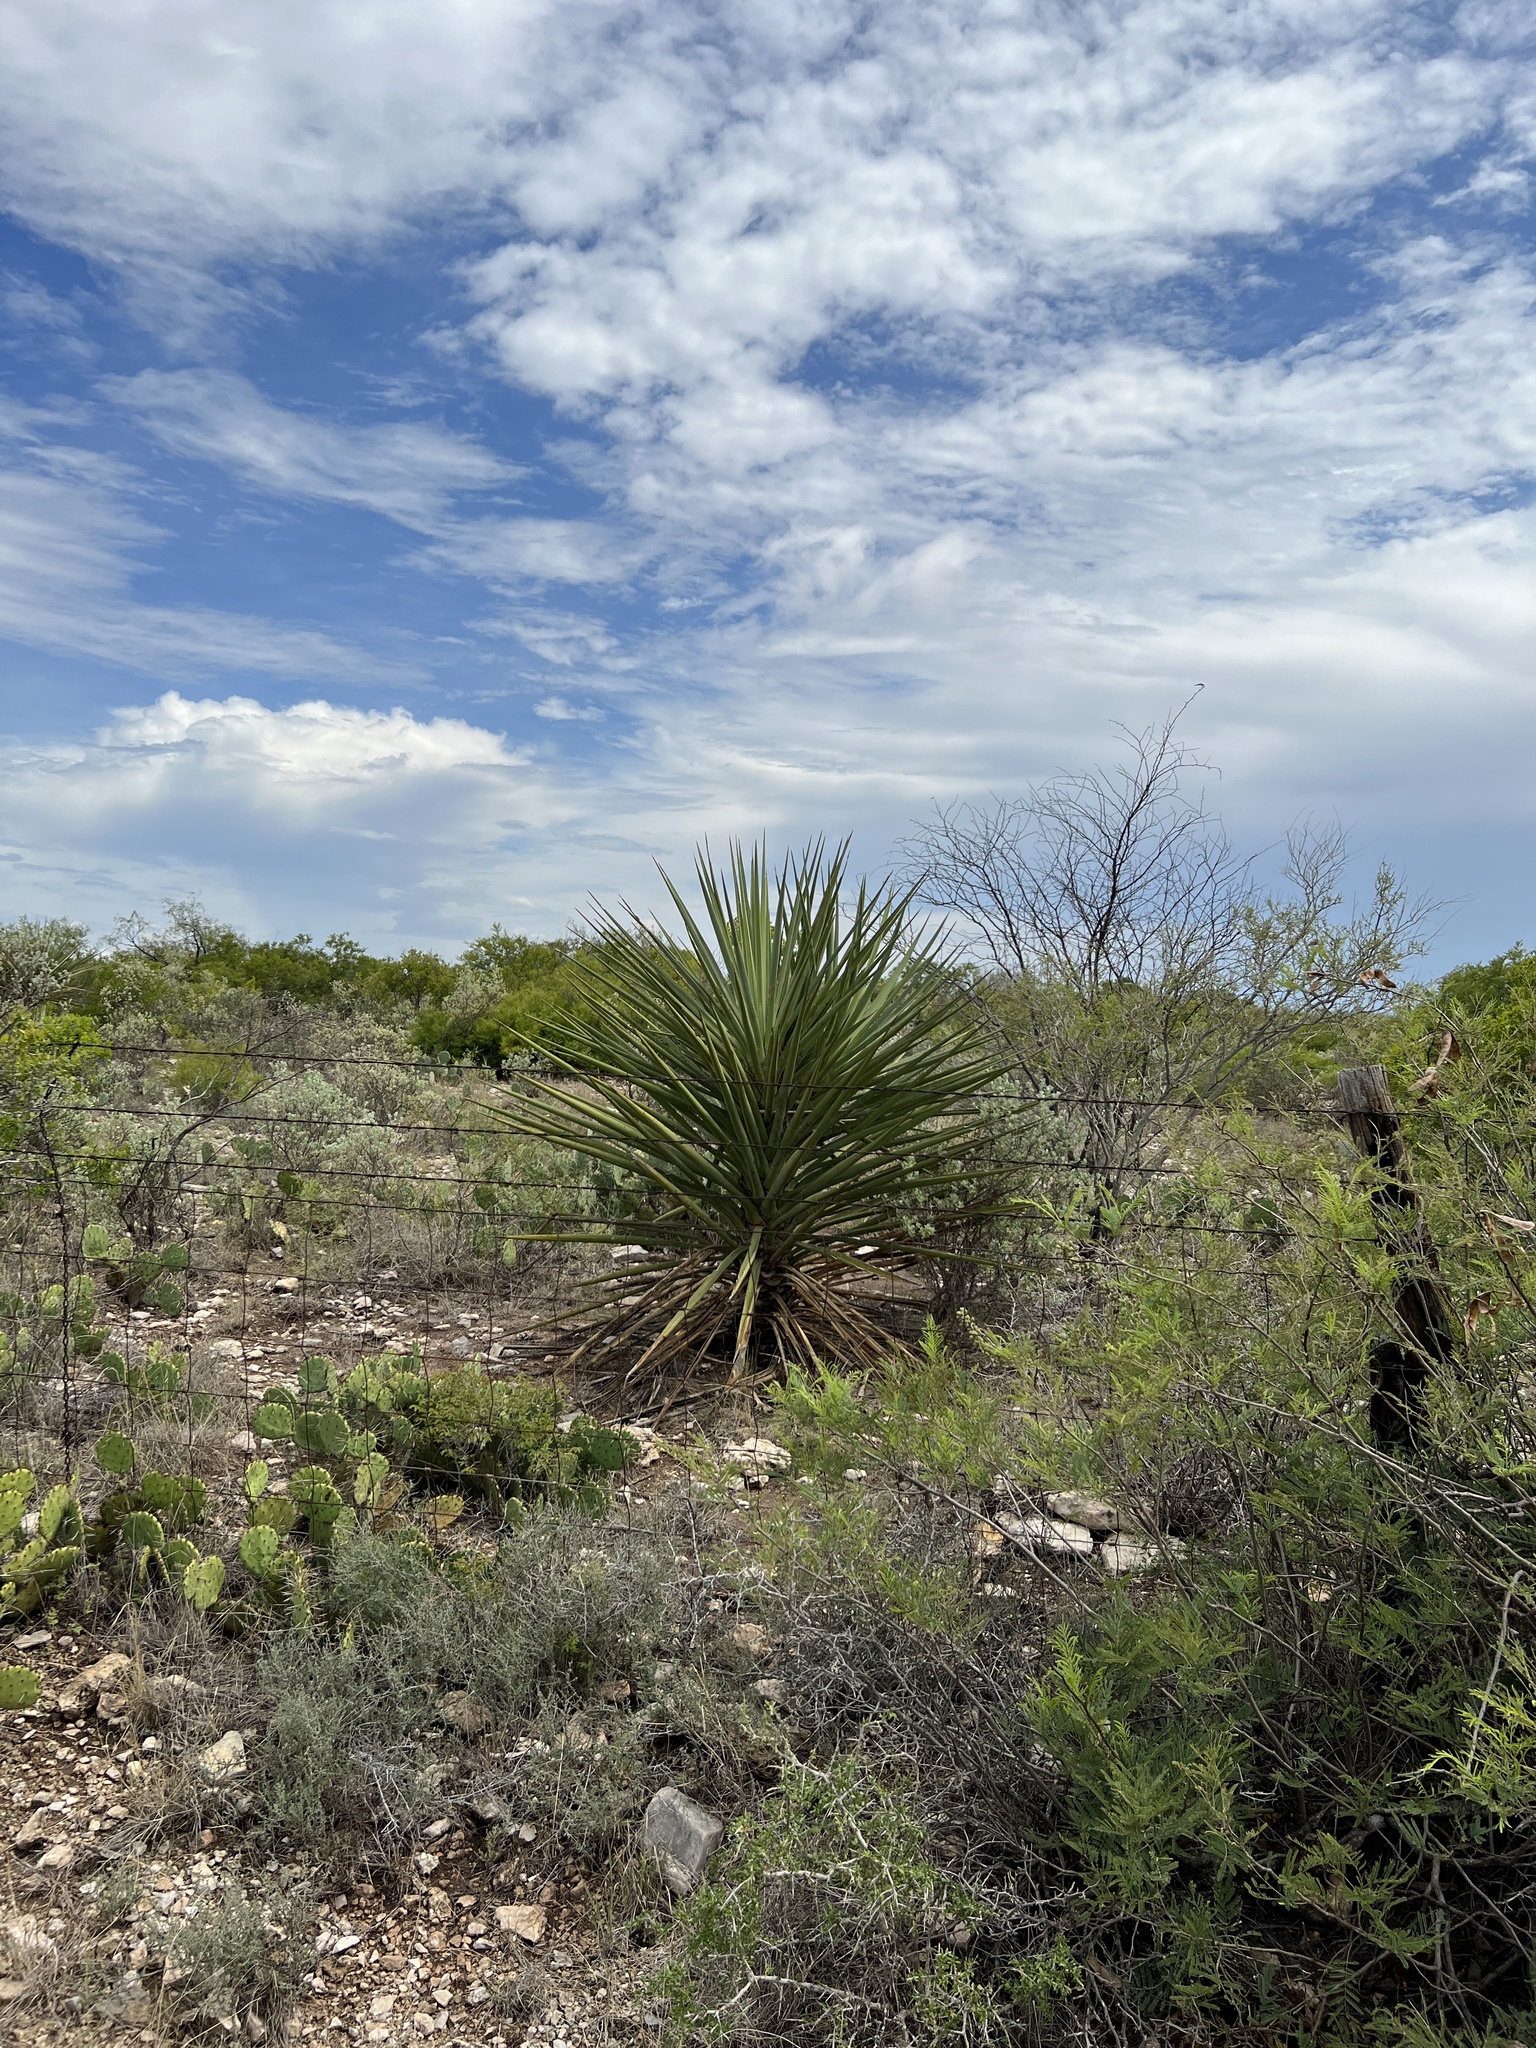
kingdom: Plantae
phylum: Tracheophyta
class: Liliopsida
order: Asparagales
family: Asparagaceae
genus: Yucca
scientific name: Yucca treculiana
